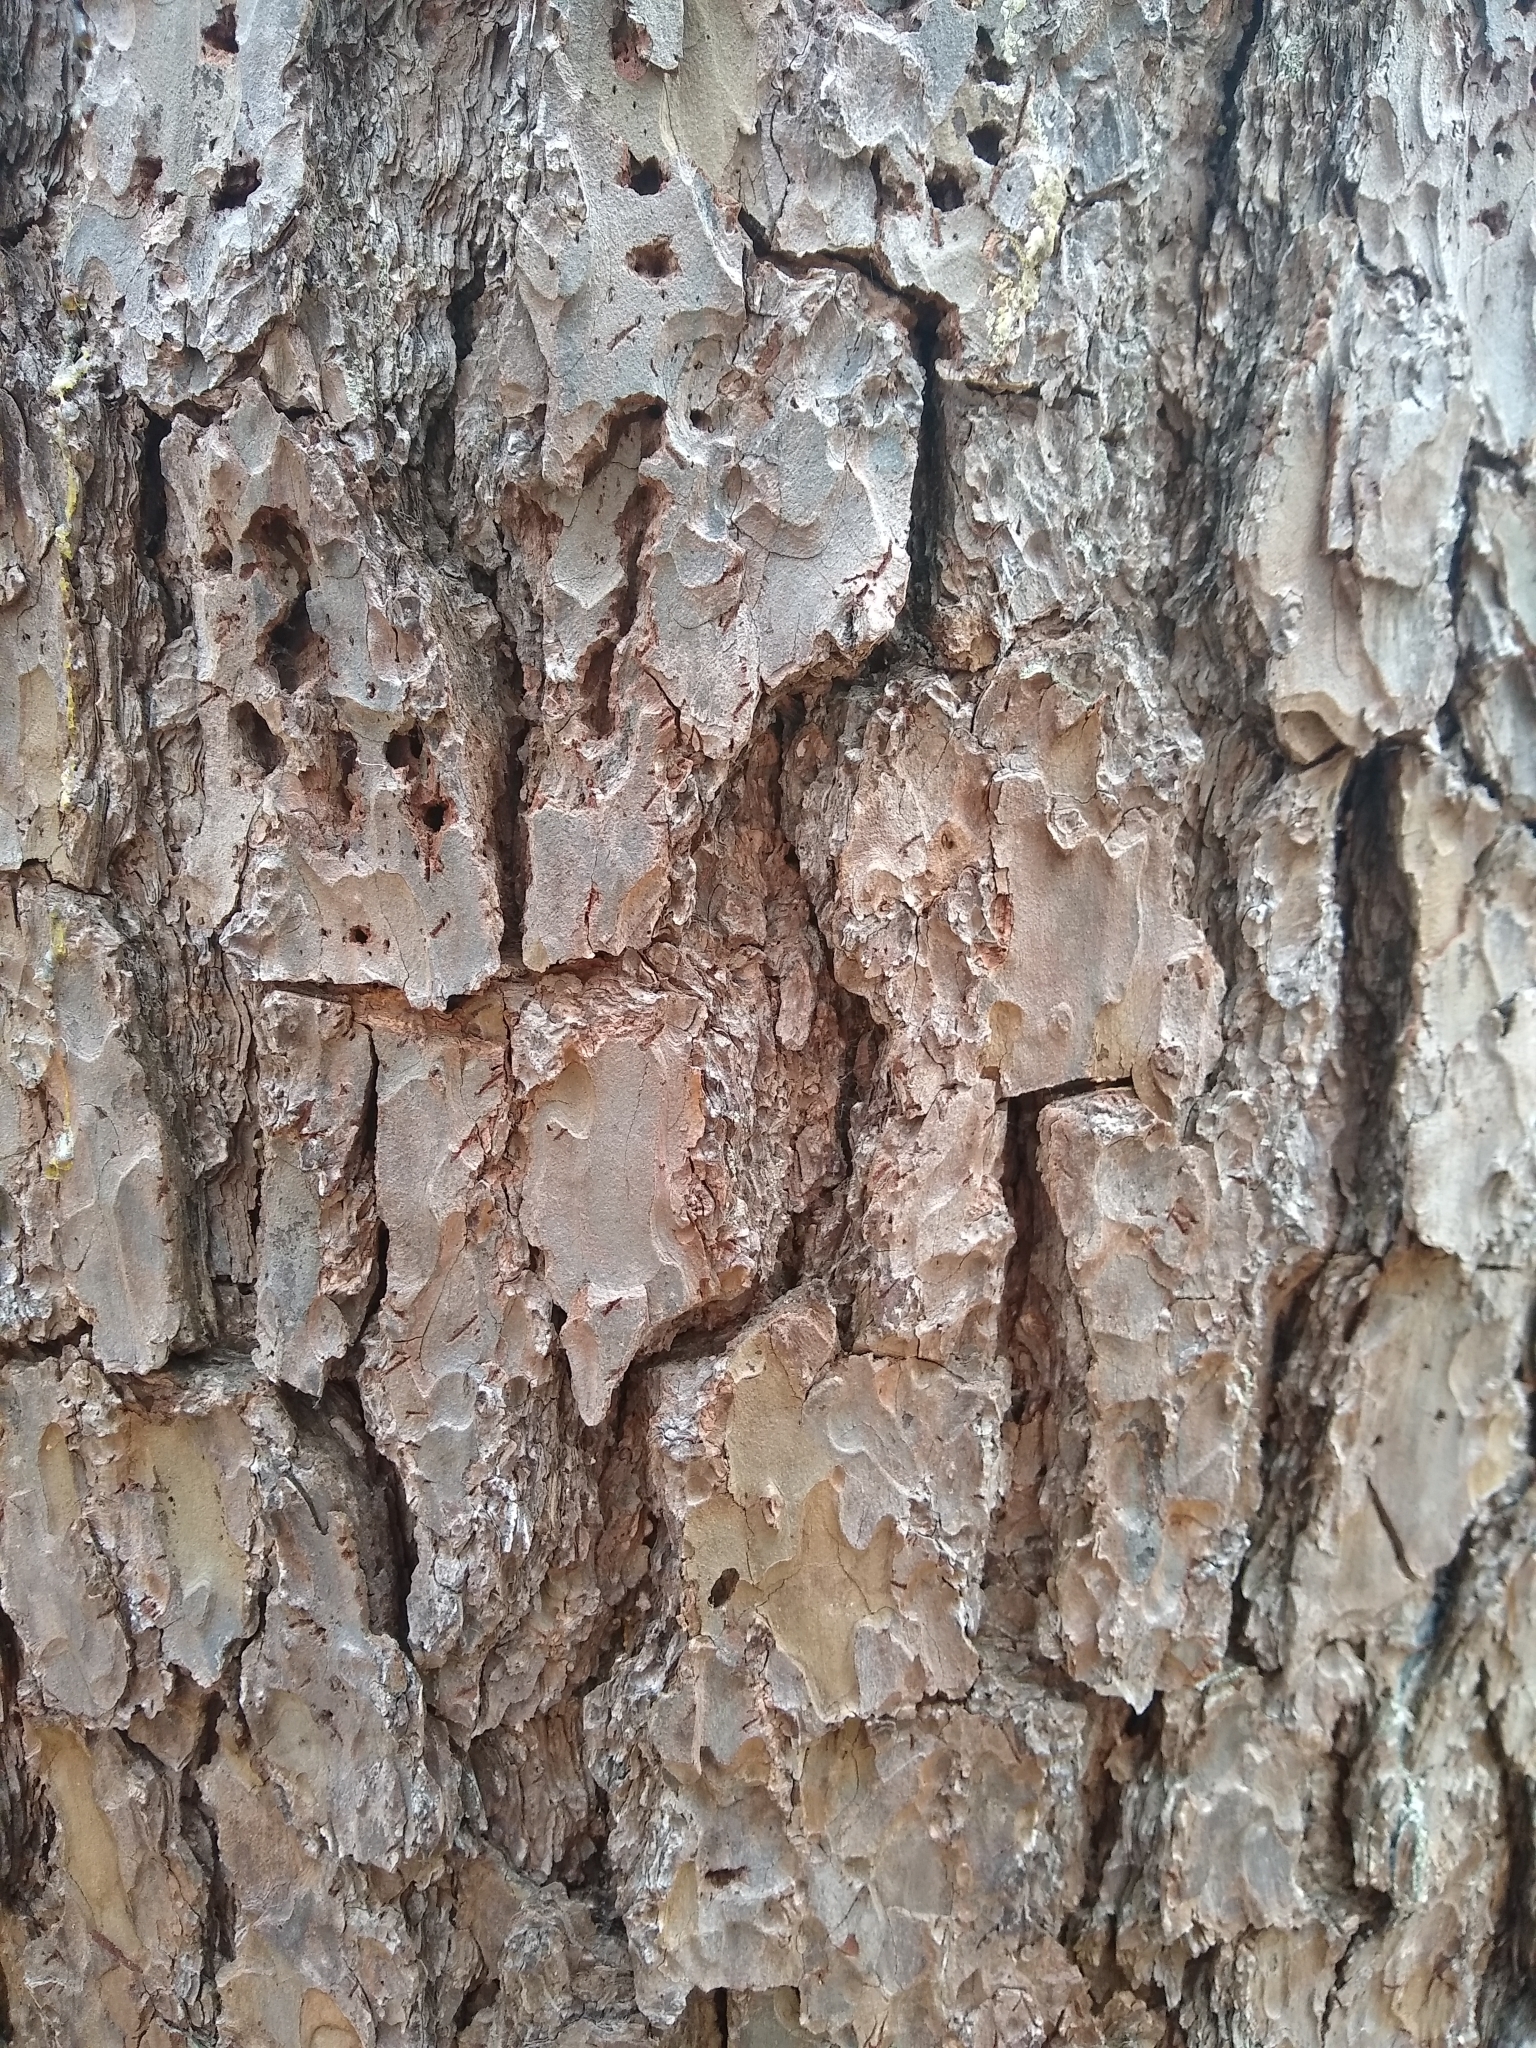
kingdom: Plantae
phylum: Tracheophyta
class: Pinopsida
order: Pinales
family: Pinaceae
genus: Pinus
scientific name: Pinus rigida
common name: Pitch pine
